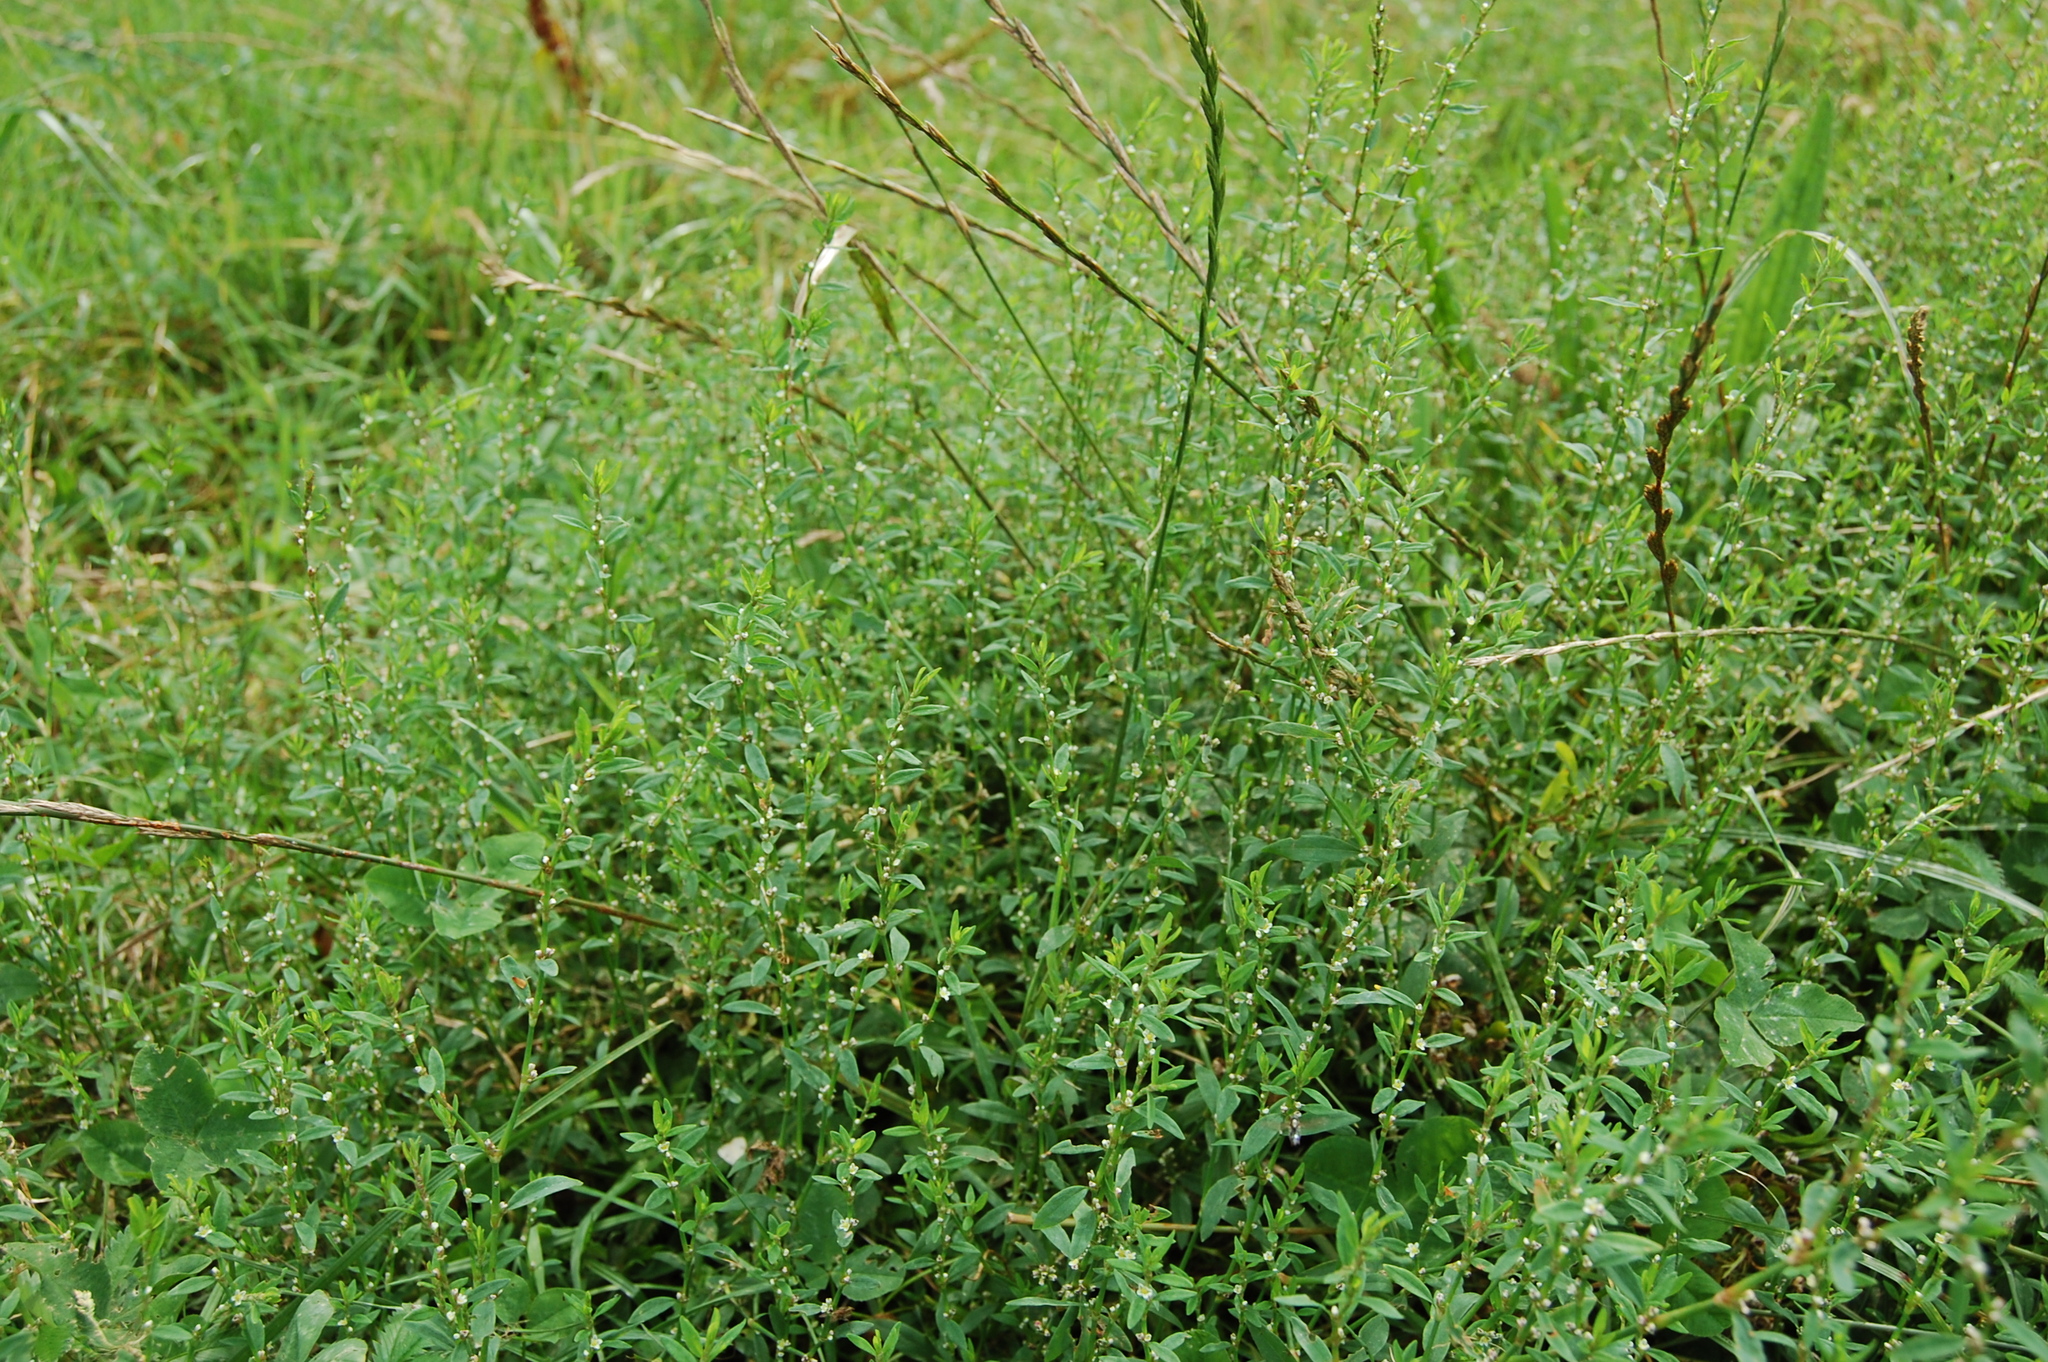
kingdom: Plantae
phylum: Tracheophyta
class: Magnoliopsida
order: Caryophyllales
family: Polygonaceae
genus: Polygonum
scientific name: Polygonum aviculare
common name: Prostrate knotweed
